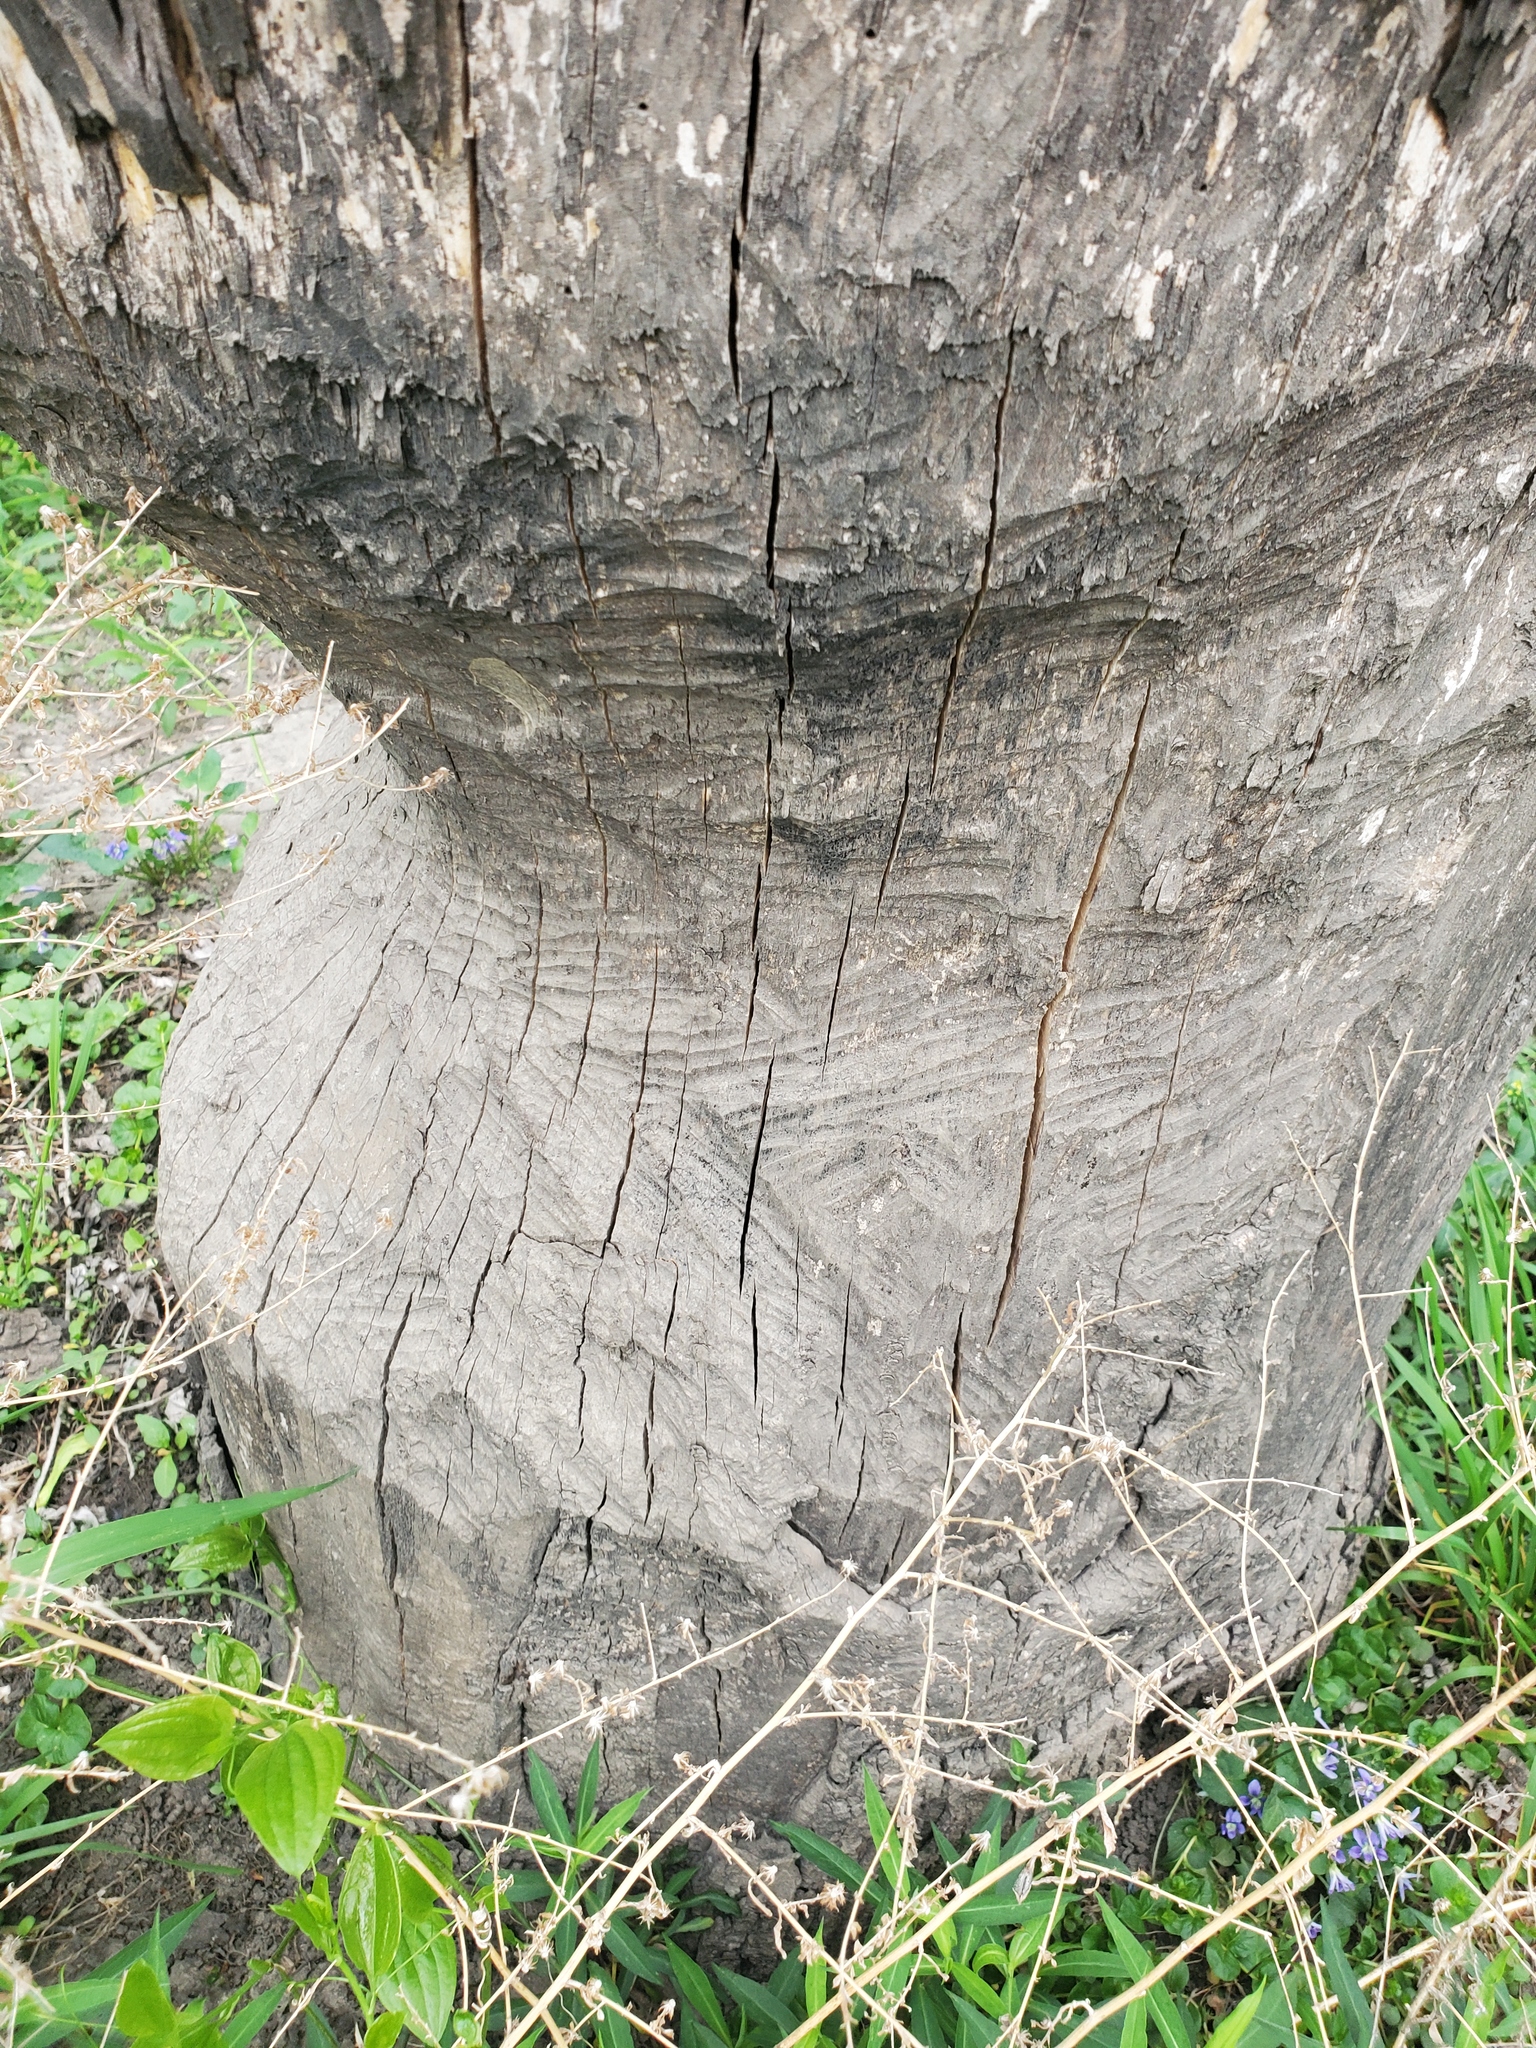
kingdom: Animalia
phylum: Chordata
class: Mammalia
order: Rodentia
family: Castoridae
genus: Castor
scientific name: Castor canadensis
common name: American beaver
